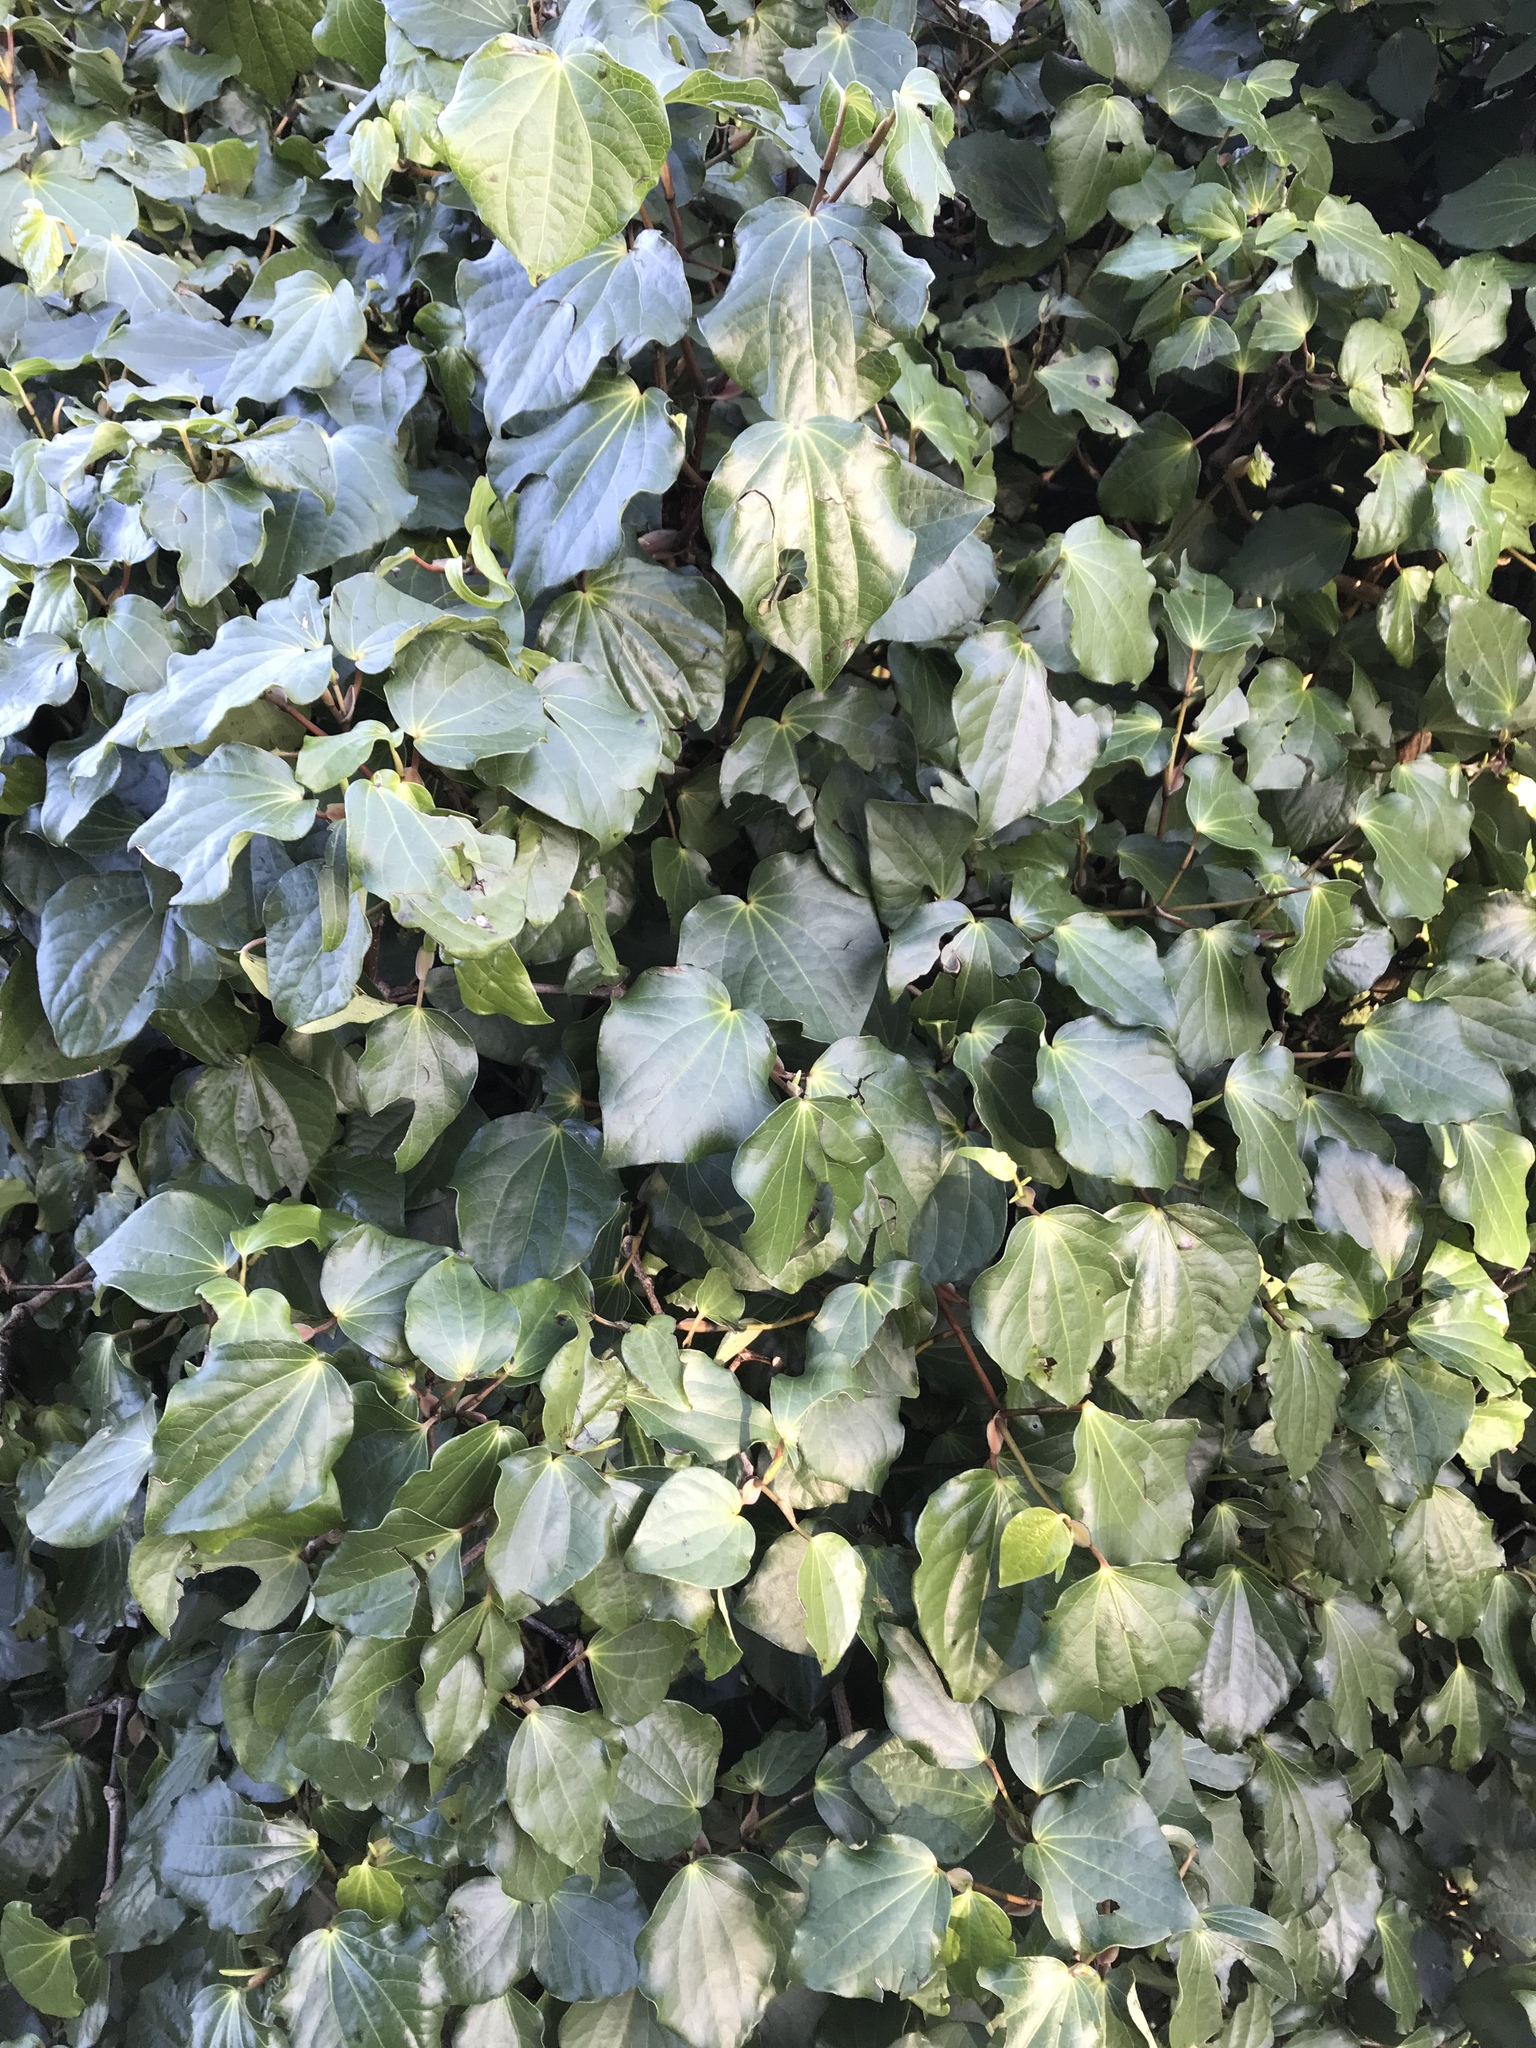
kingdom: Plantae
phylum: Tracheophyta
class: Magnoliopsida
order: Piperales
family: Piperaceae
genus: Macropiper
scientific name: Macropiper excelsum
